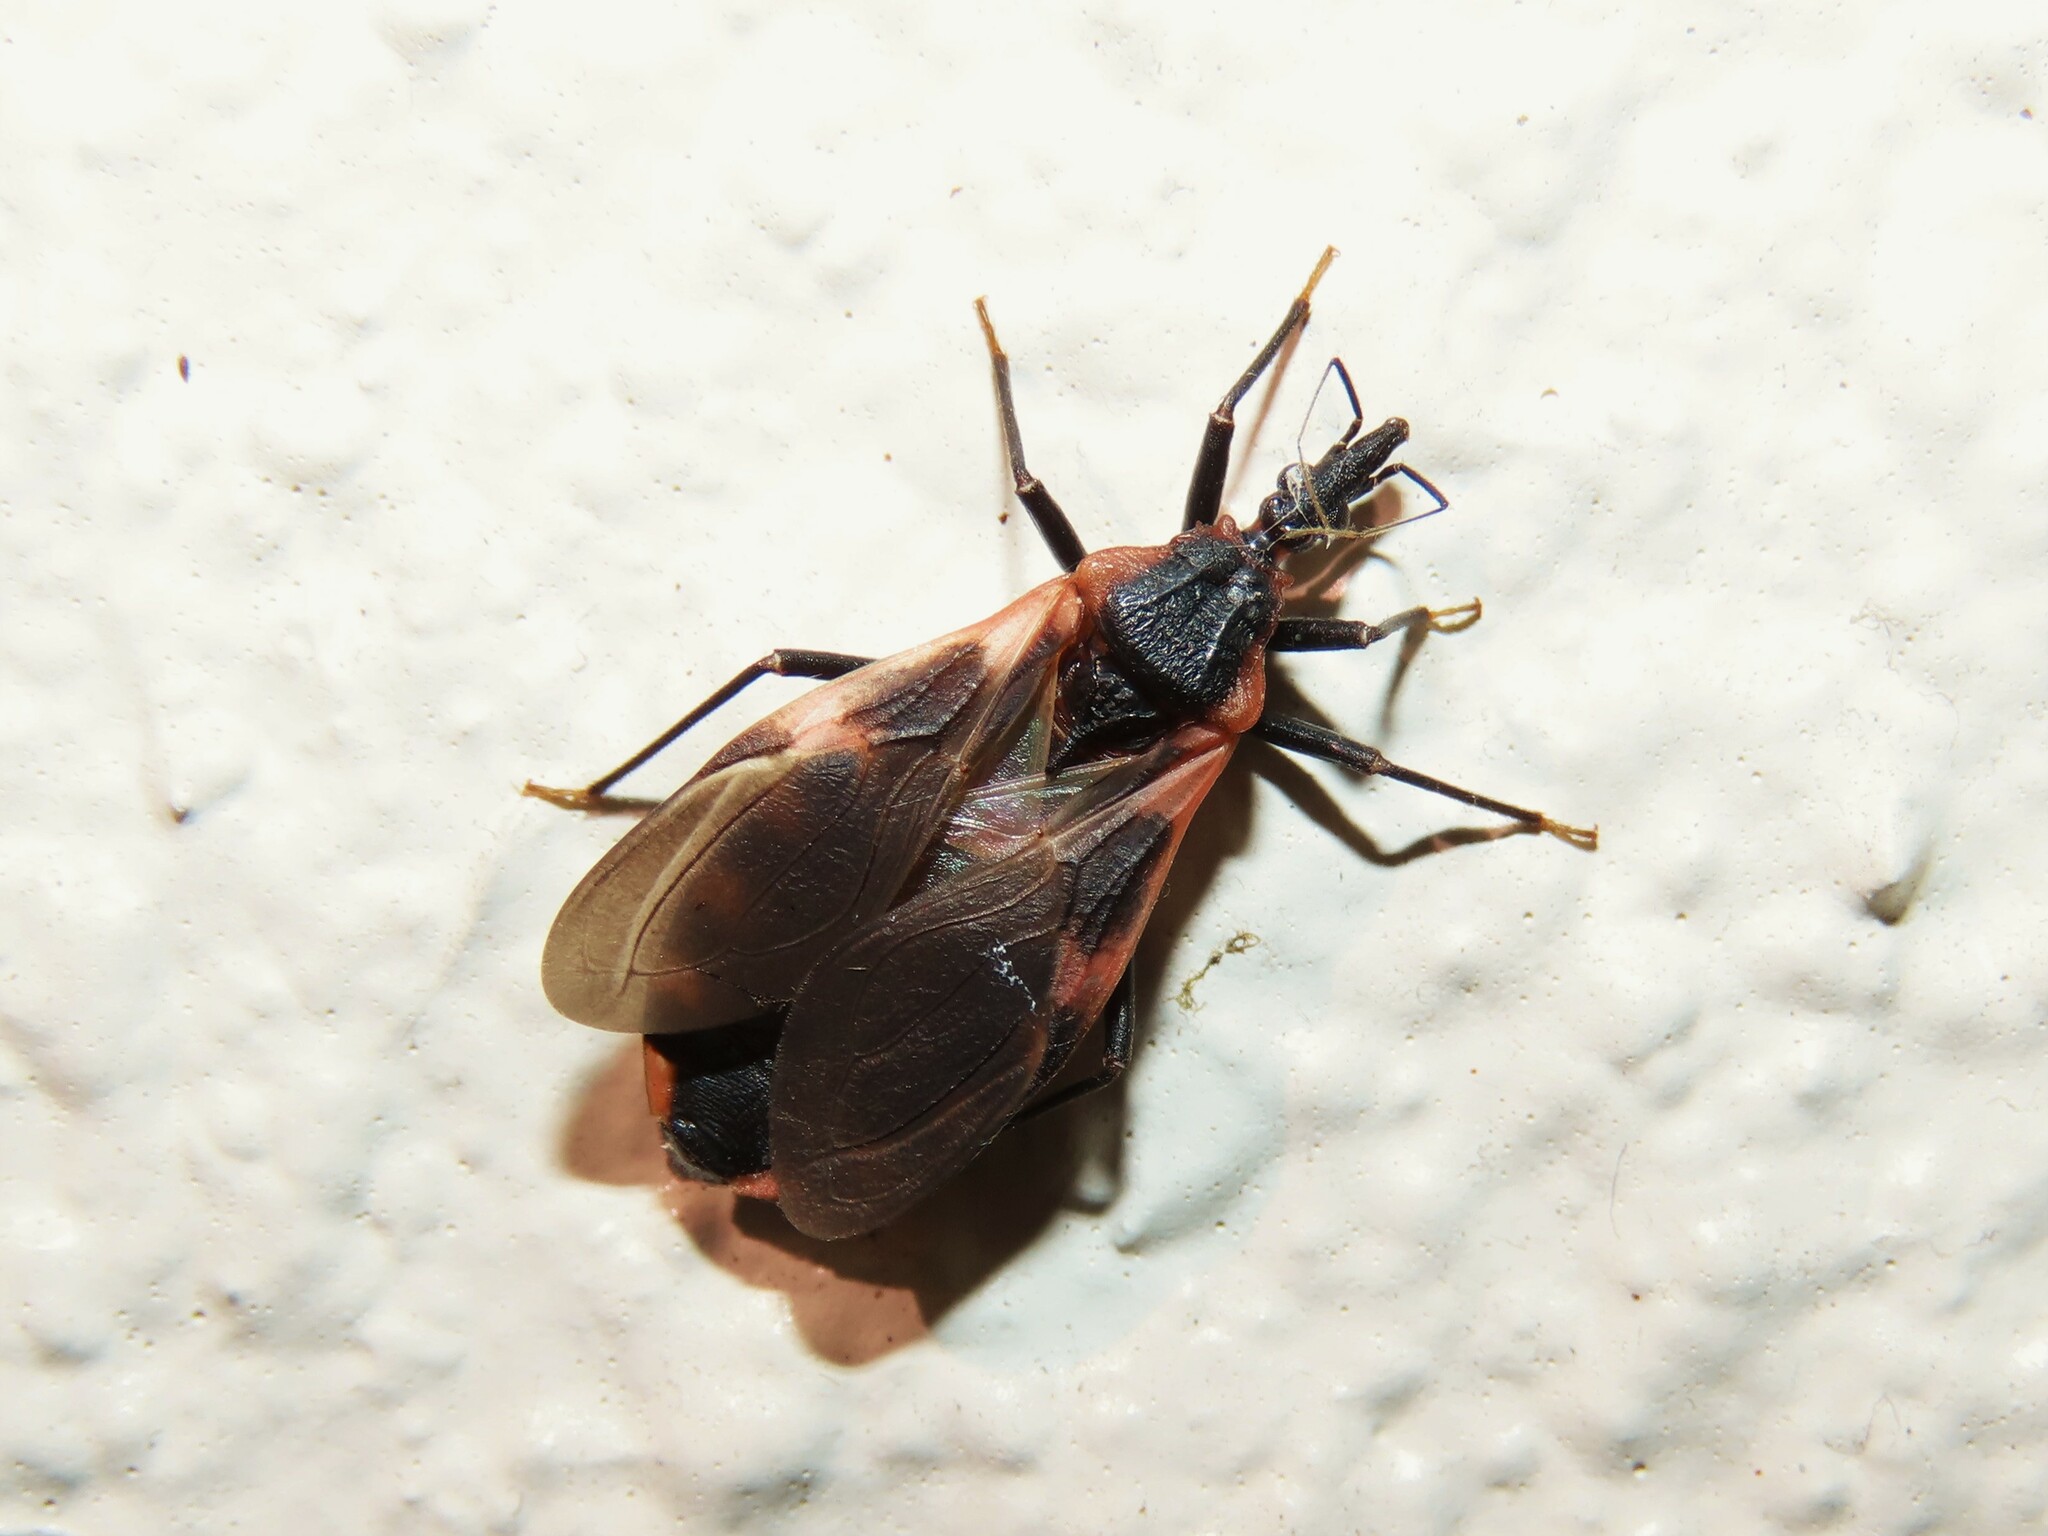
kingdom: Animalia
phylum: Arthropoda
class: Insecta
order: Hemiptera
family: Reduviidae
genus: Triatoma
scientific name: Triatoma sanguisuga
